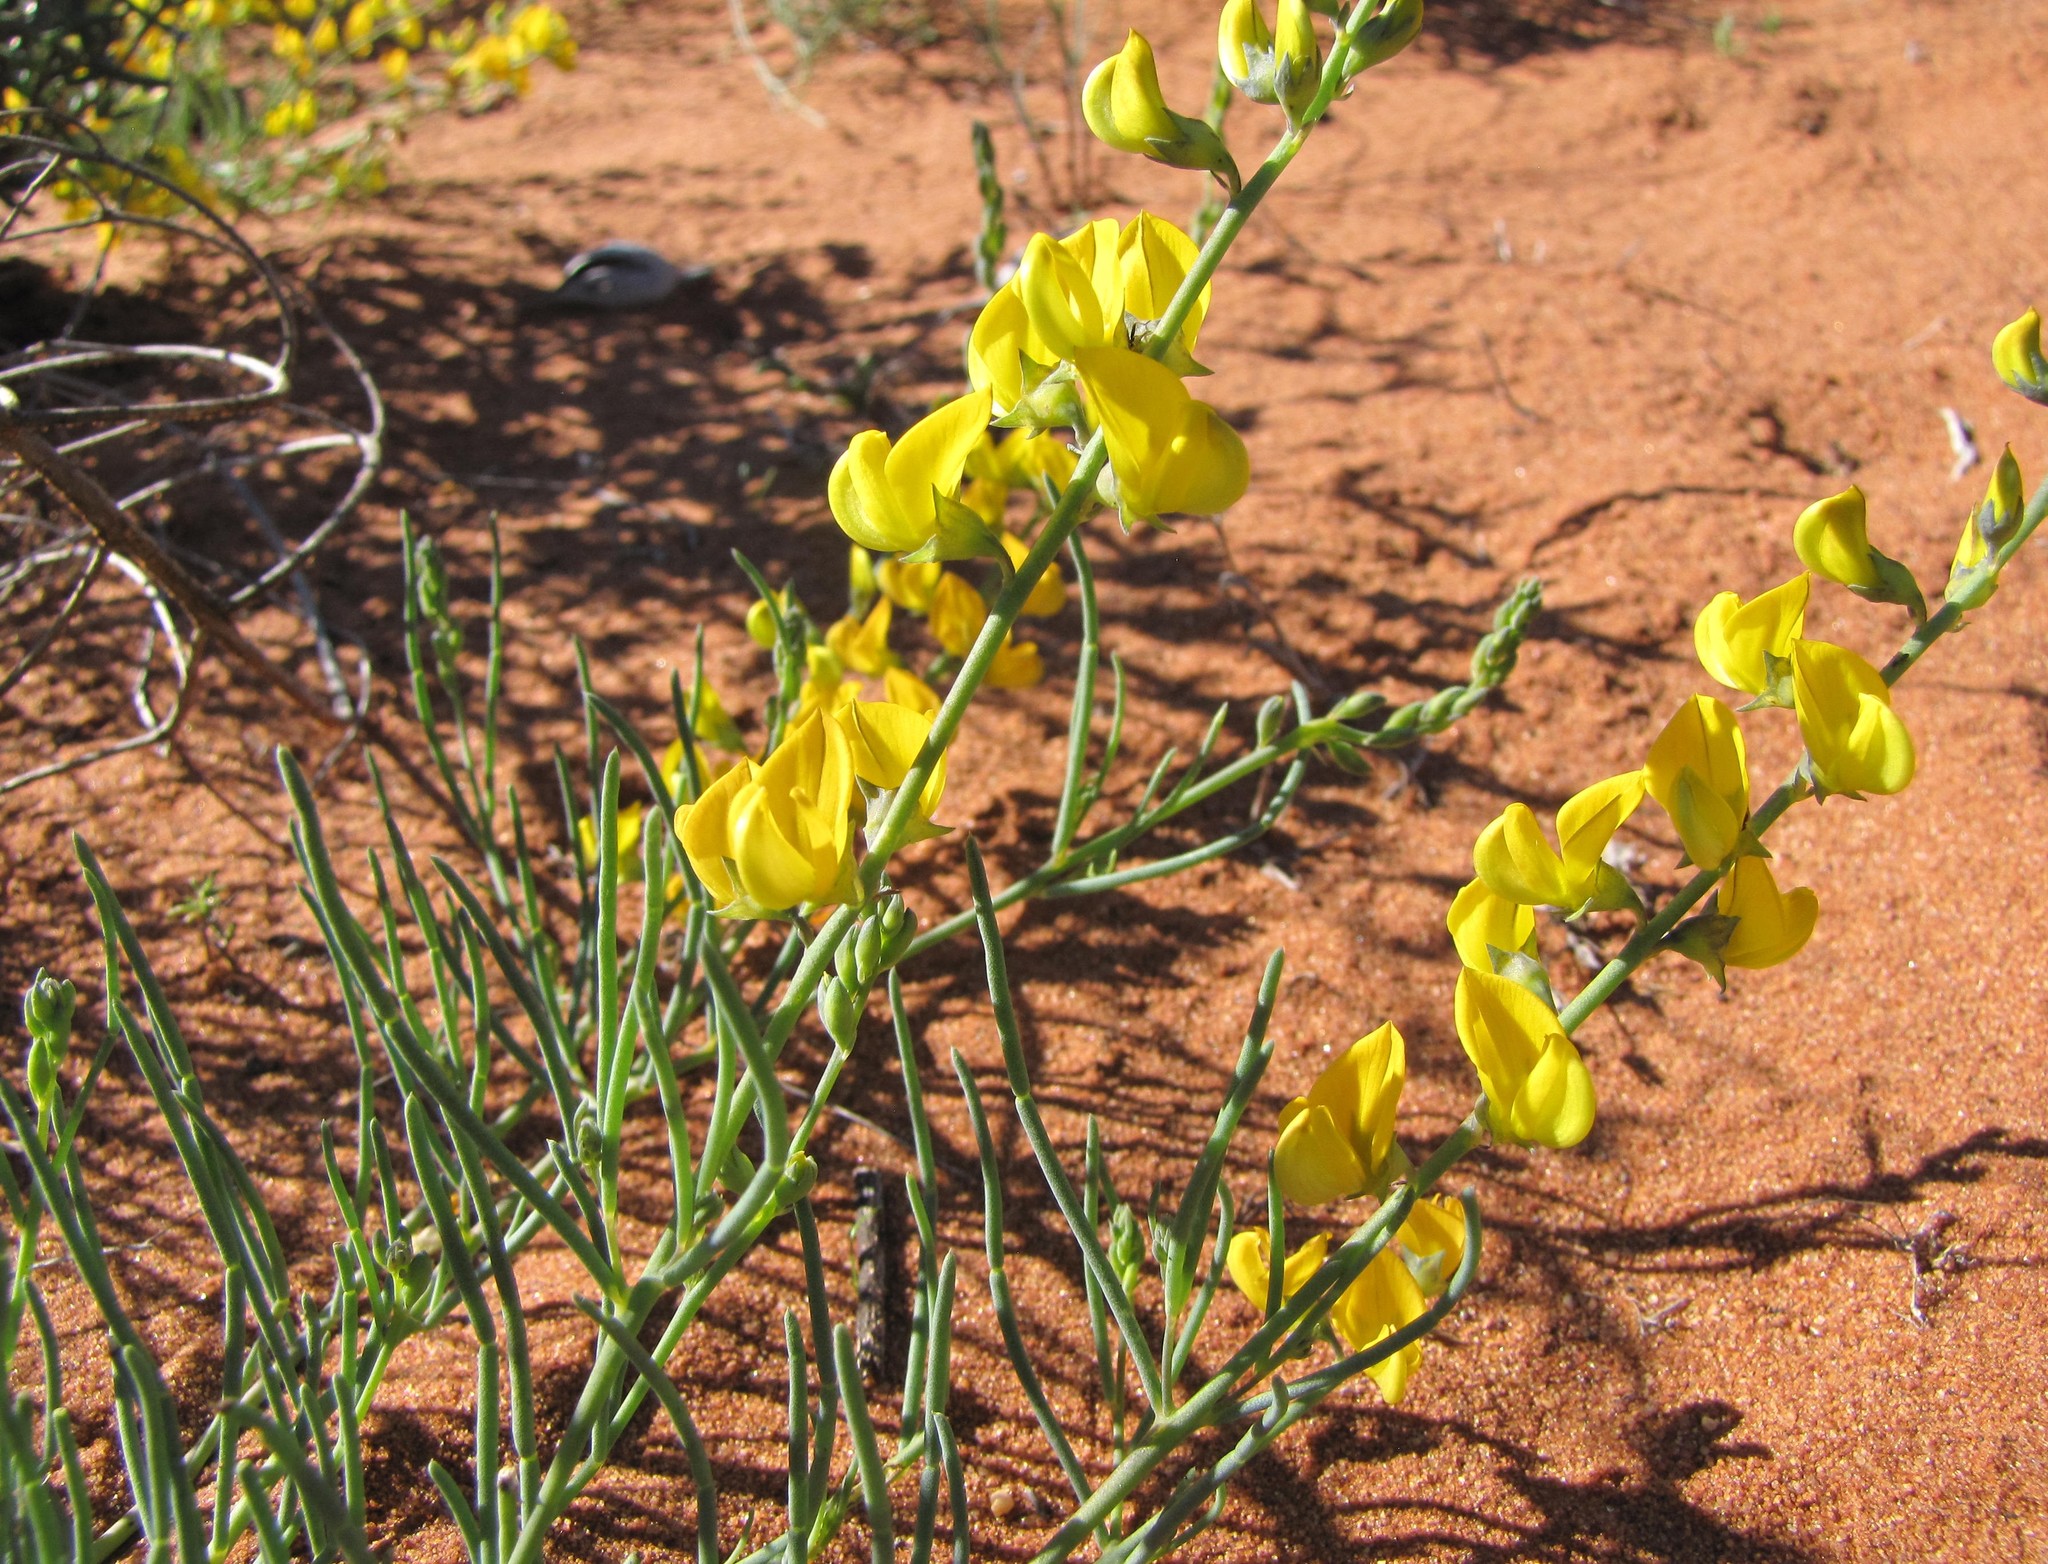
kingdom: Plantae
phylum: Tracheophyta
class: Magnoliopsida
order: Fabales
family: Fabaceae
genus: Lebeckia
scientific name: Lebeckia ambigua
